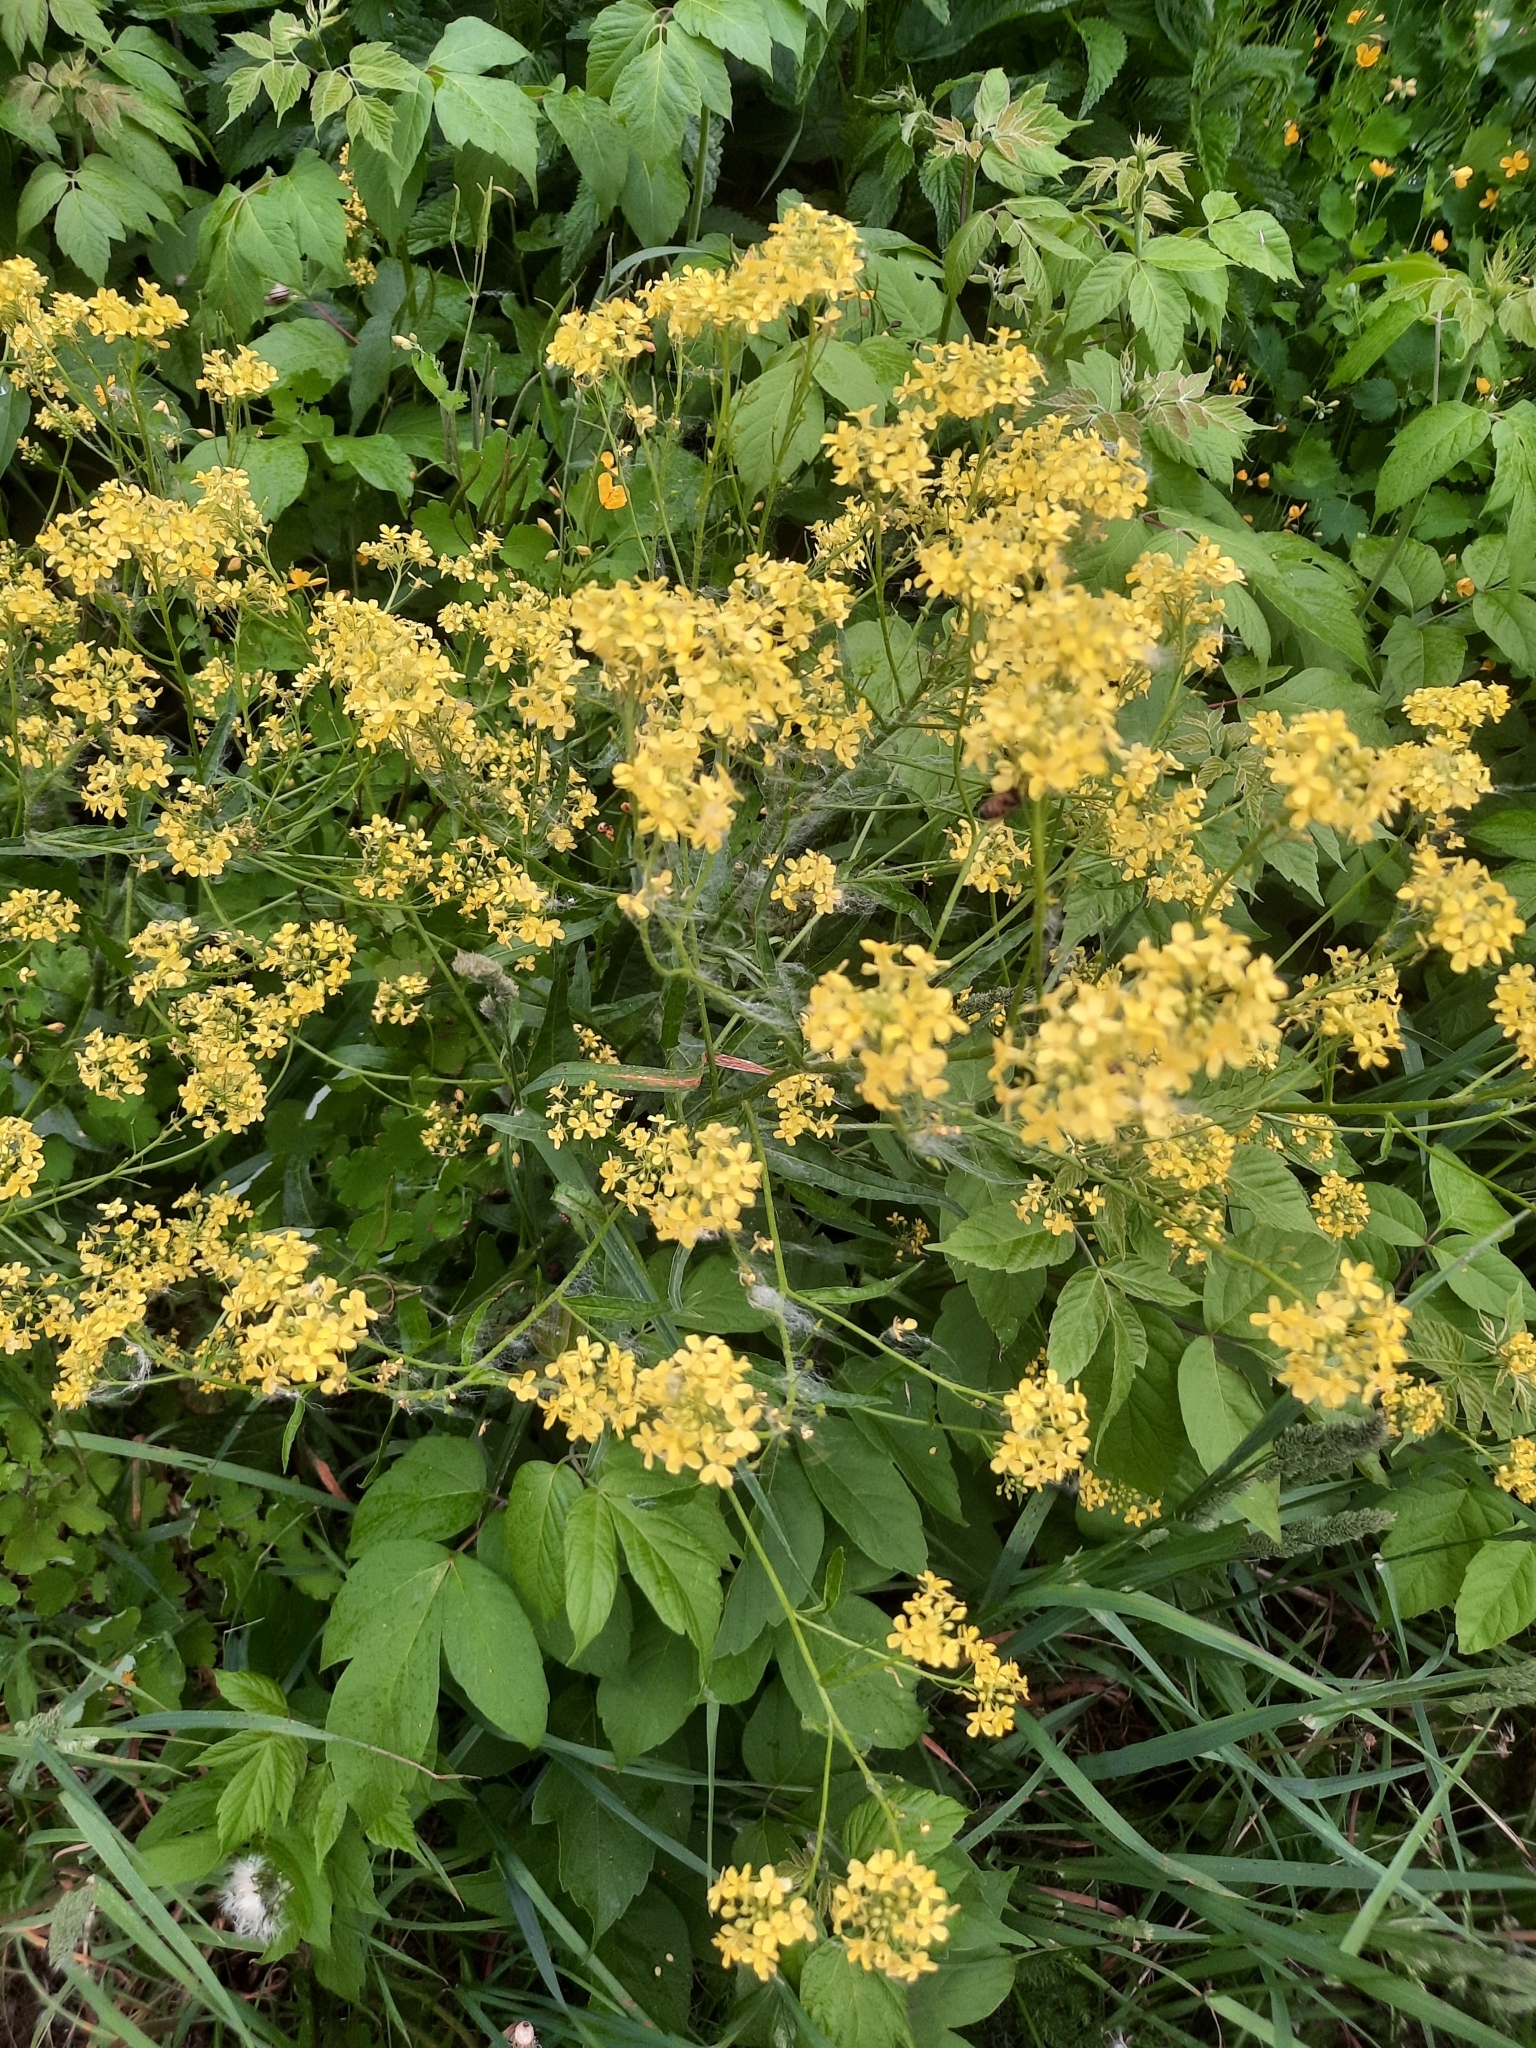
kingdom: Plantae
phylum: Tracheophyta
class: Magnoliopsida
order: Brassicales
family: Brassicaceae
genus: Bunias
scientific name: Bunias orientalis
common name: Warty-cabbage
